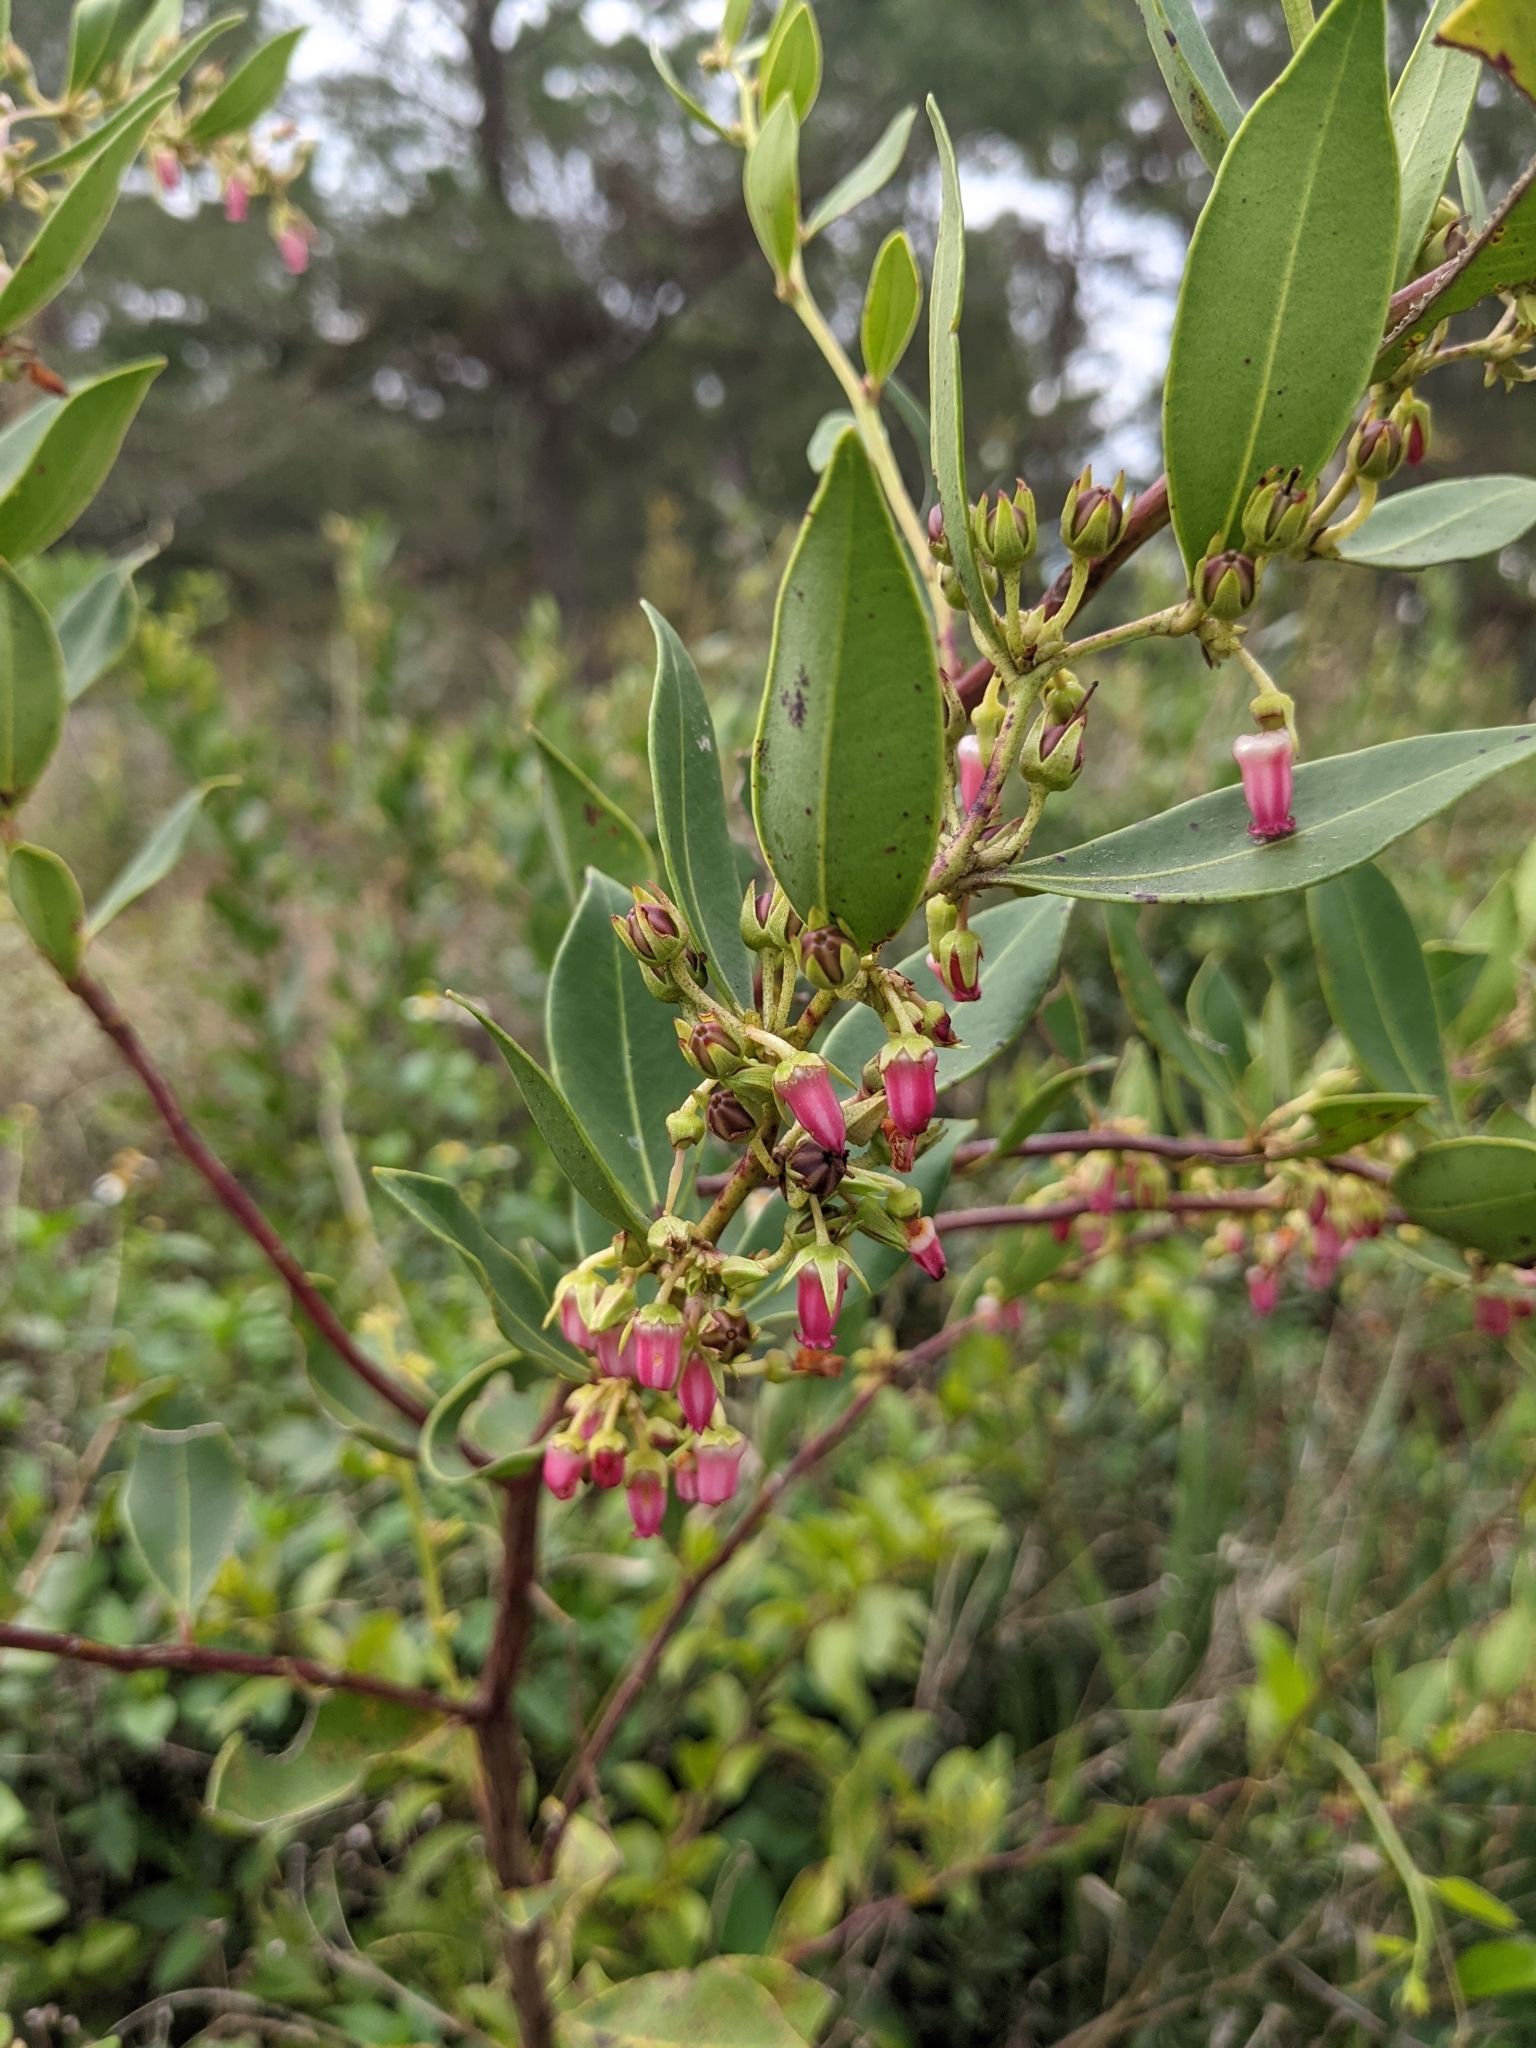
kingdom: Plantae
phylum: Tracheophyta
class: Magnoliopsida
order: Ericales
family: Ericaceae
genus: Lyonia
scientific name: Lyonia lucida
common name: Fetterbush
